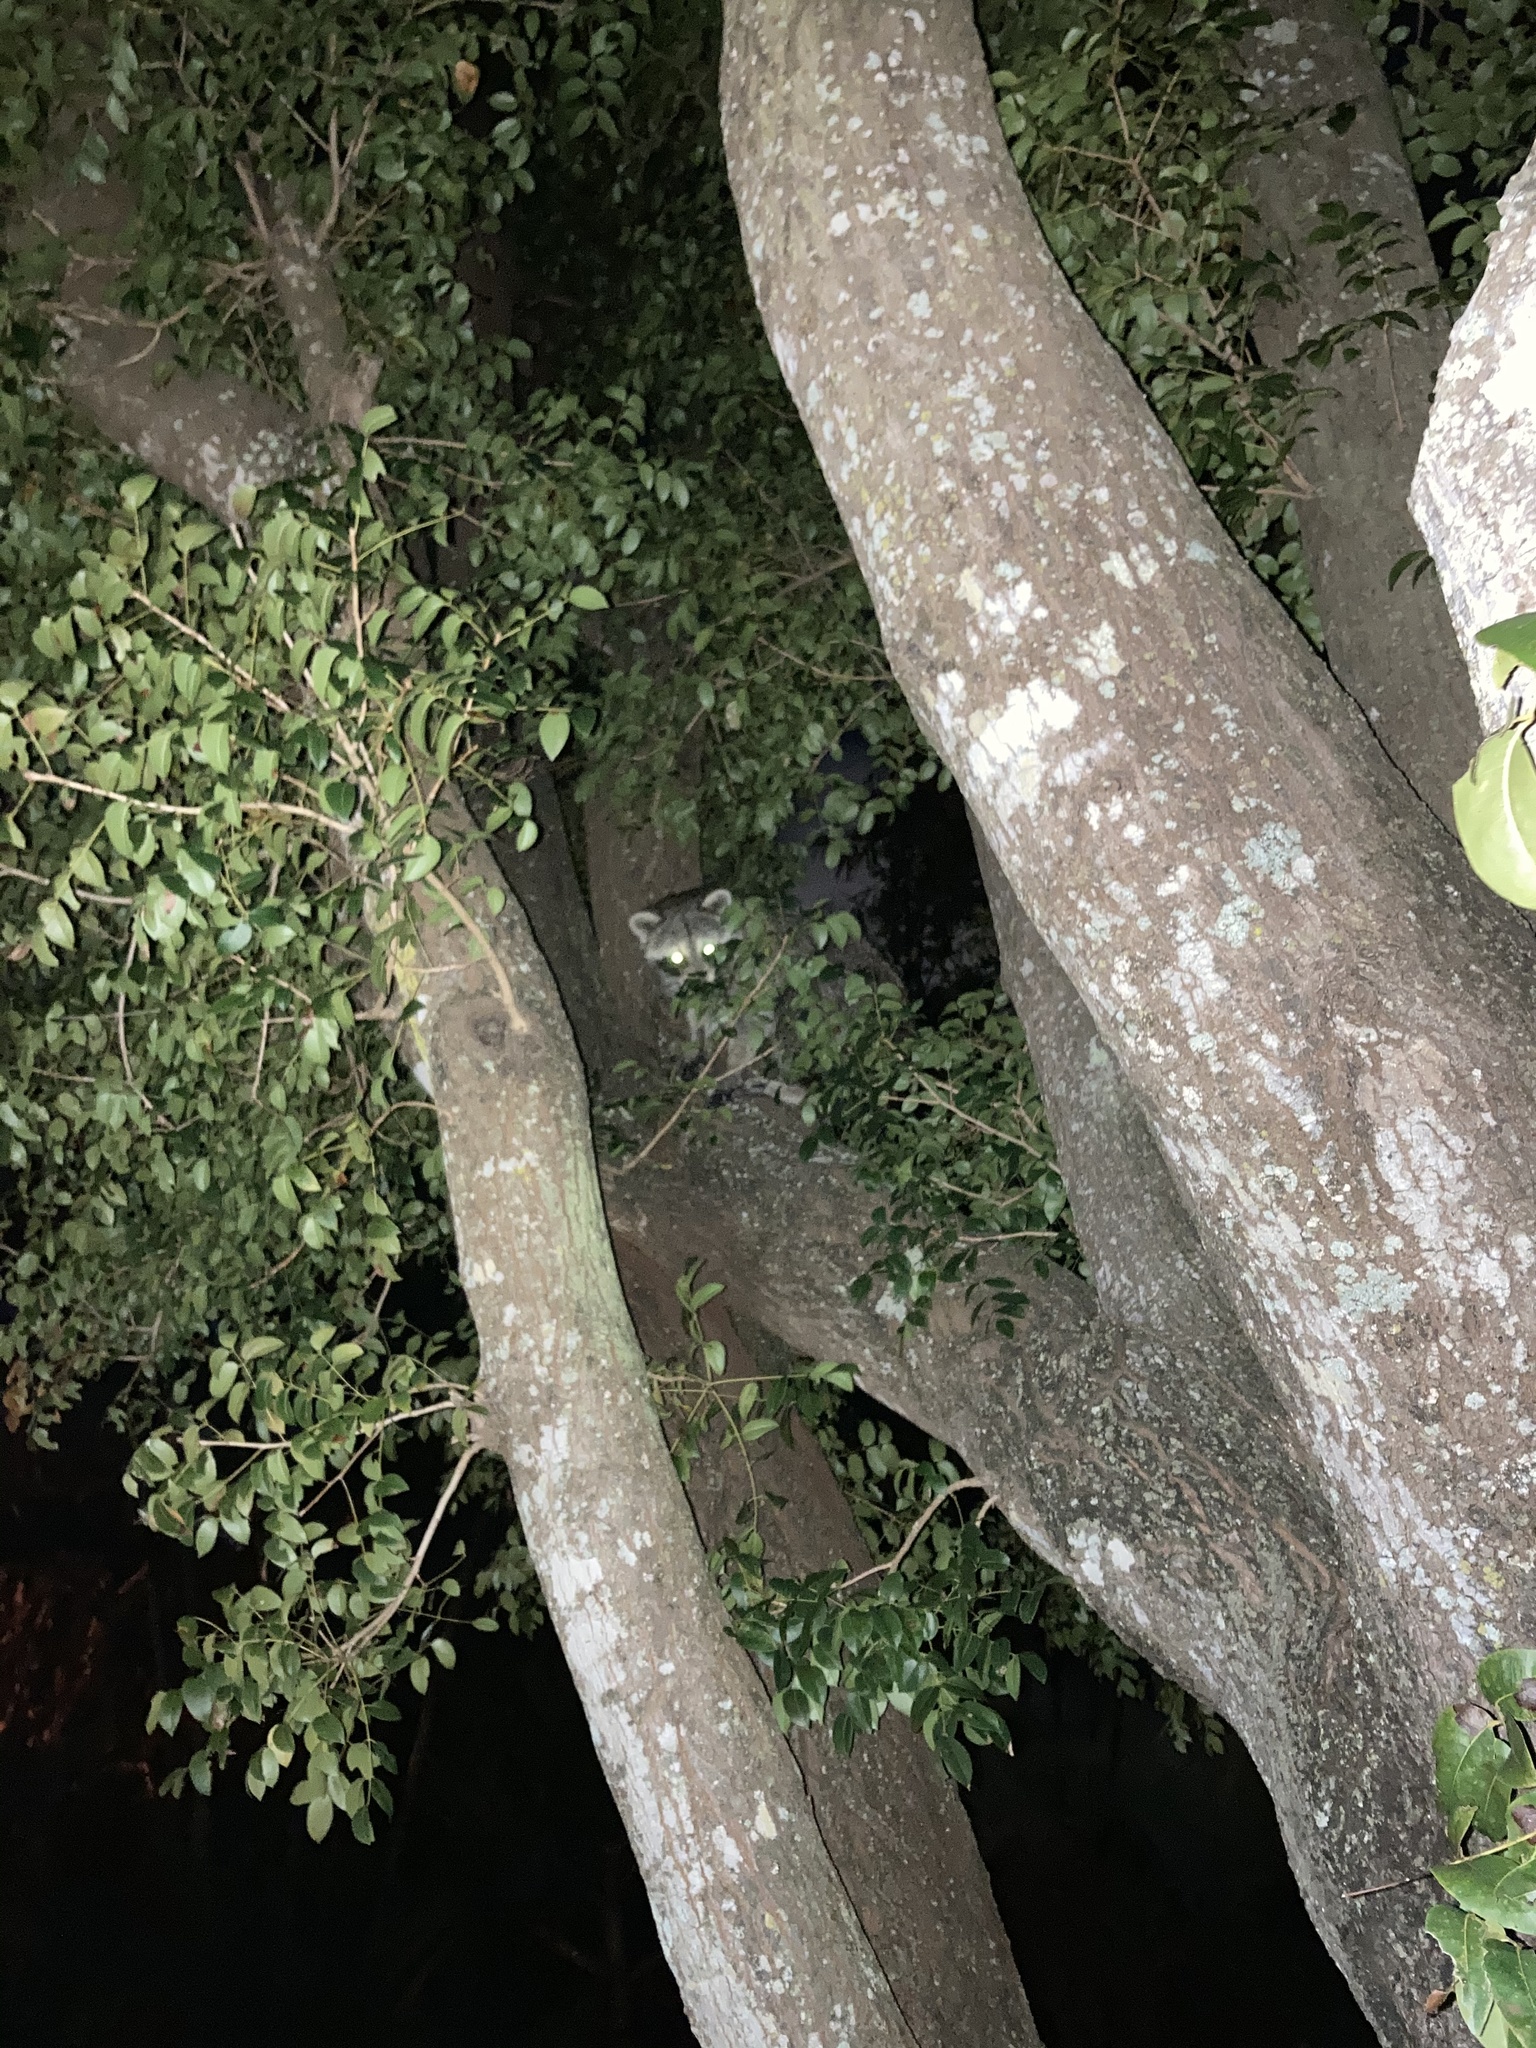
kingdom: Animalia
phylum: Chordata
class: Mammalia
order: Carnivora
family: Procyonidae
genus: Procyon
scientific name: Procyon lotor
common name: Raccoon
